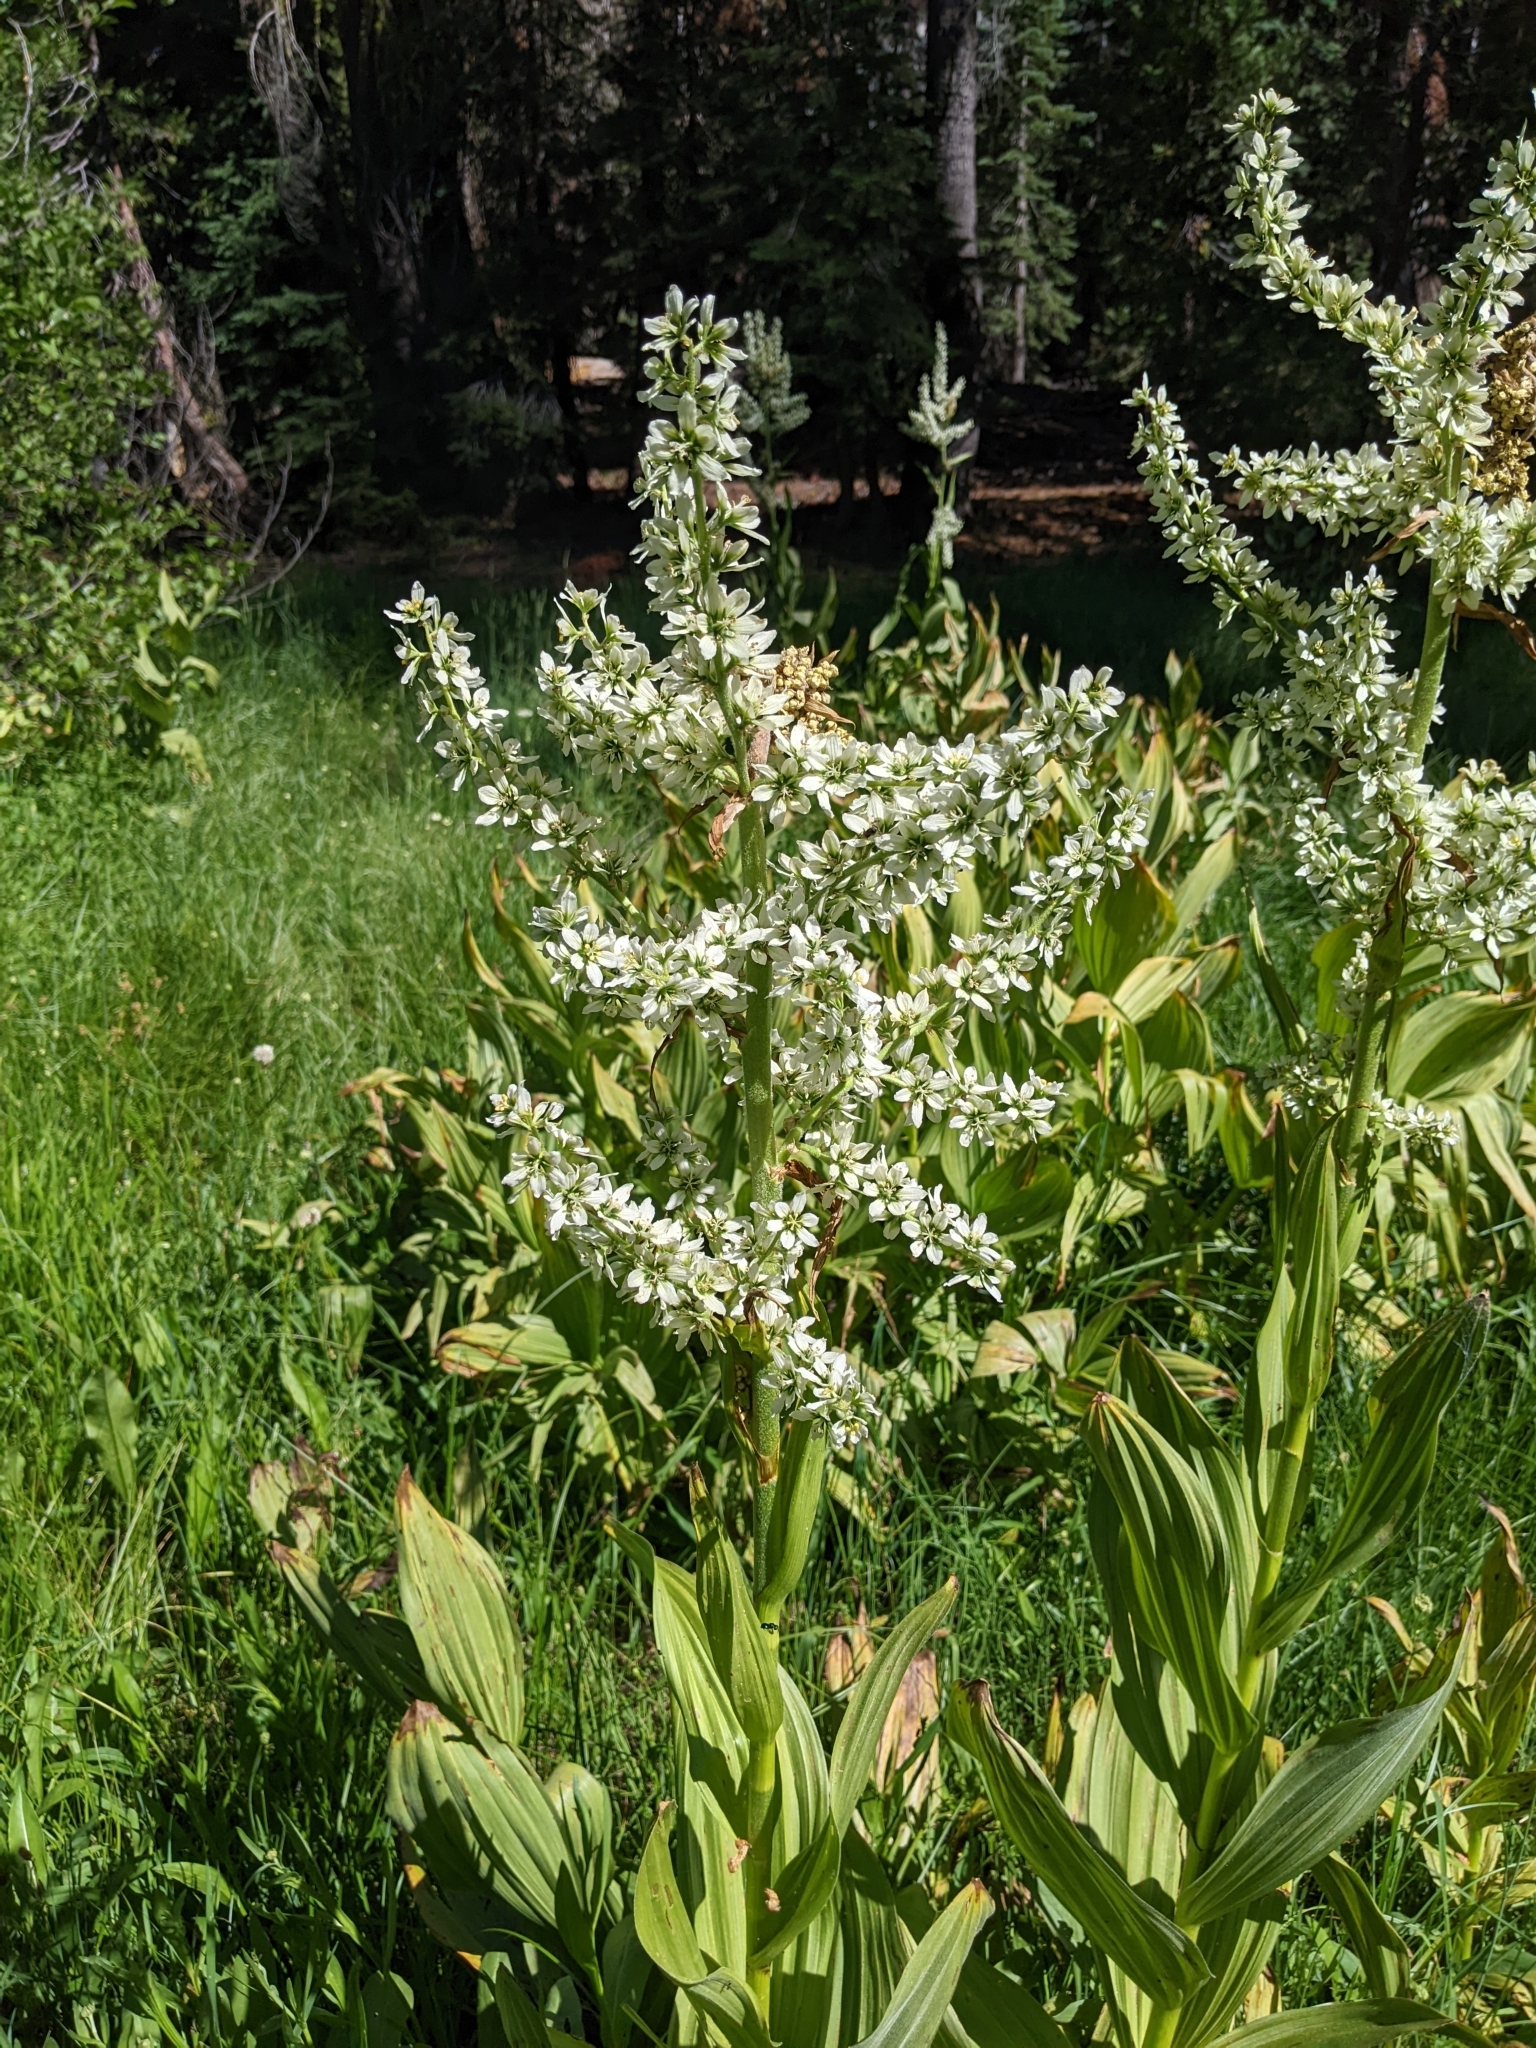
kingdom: Plantae
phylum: Tracheophyta
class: Liliopsida
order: Liliales
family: Melanthiaceae
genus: Veratrum
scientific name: Veratrum californicum
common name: California veratrum
